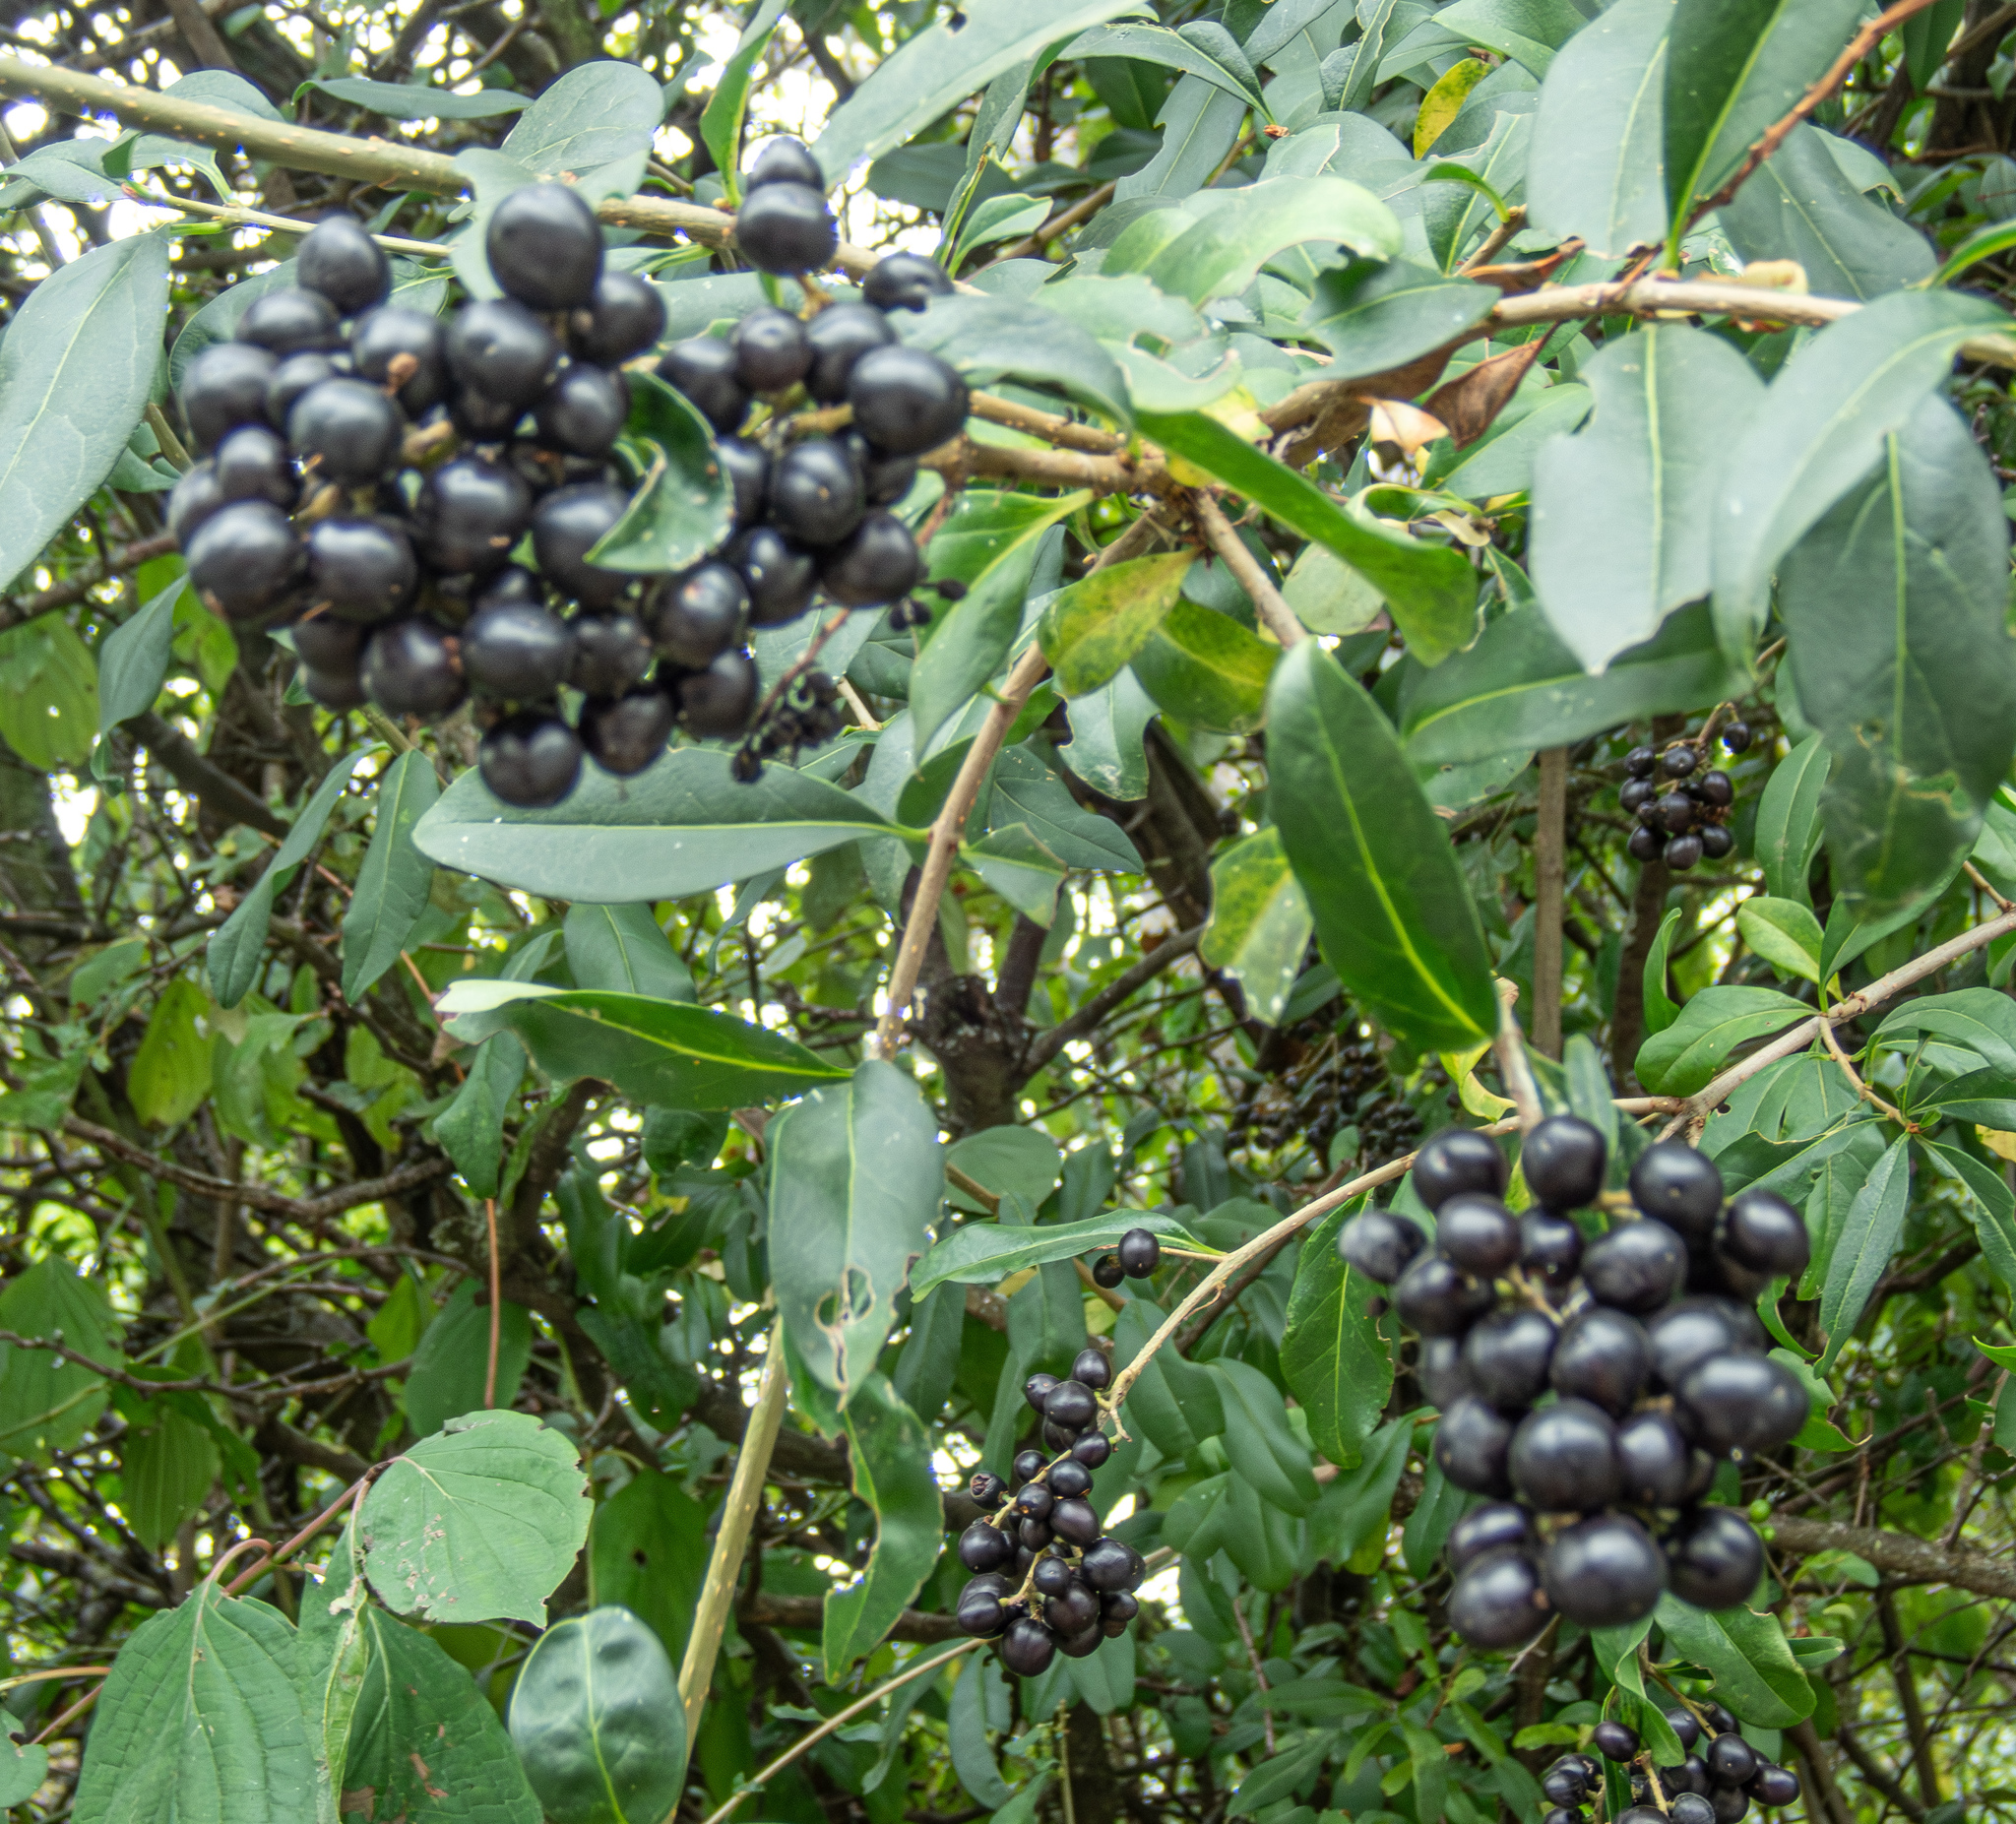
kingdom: Plantae
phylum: Tracheophyta
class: Magnoliopsida
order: Lamiales
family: Oleaceae
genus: Ligustrum
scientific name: Ligustrum vulgare
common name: Wild privet
